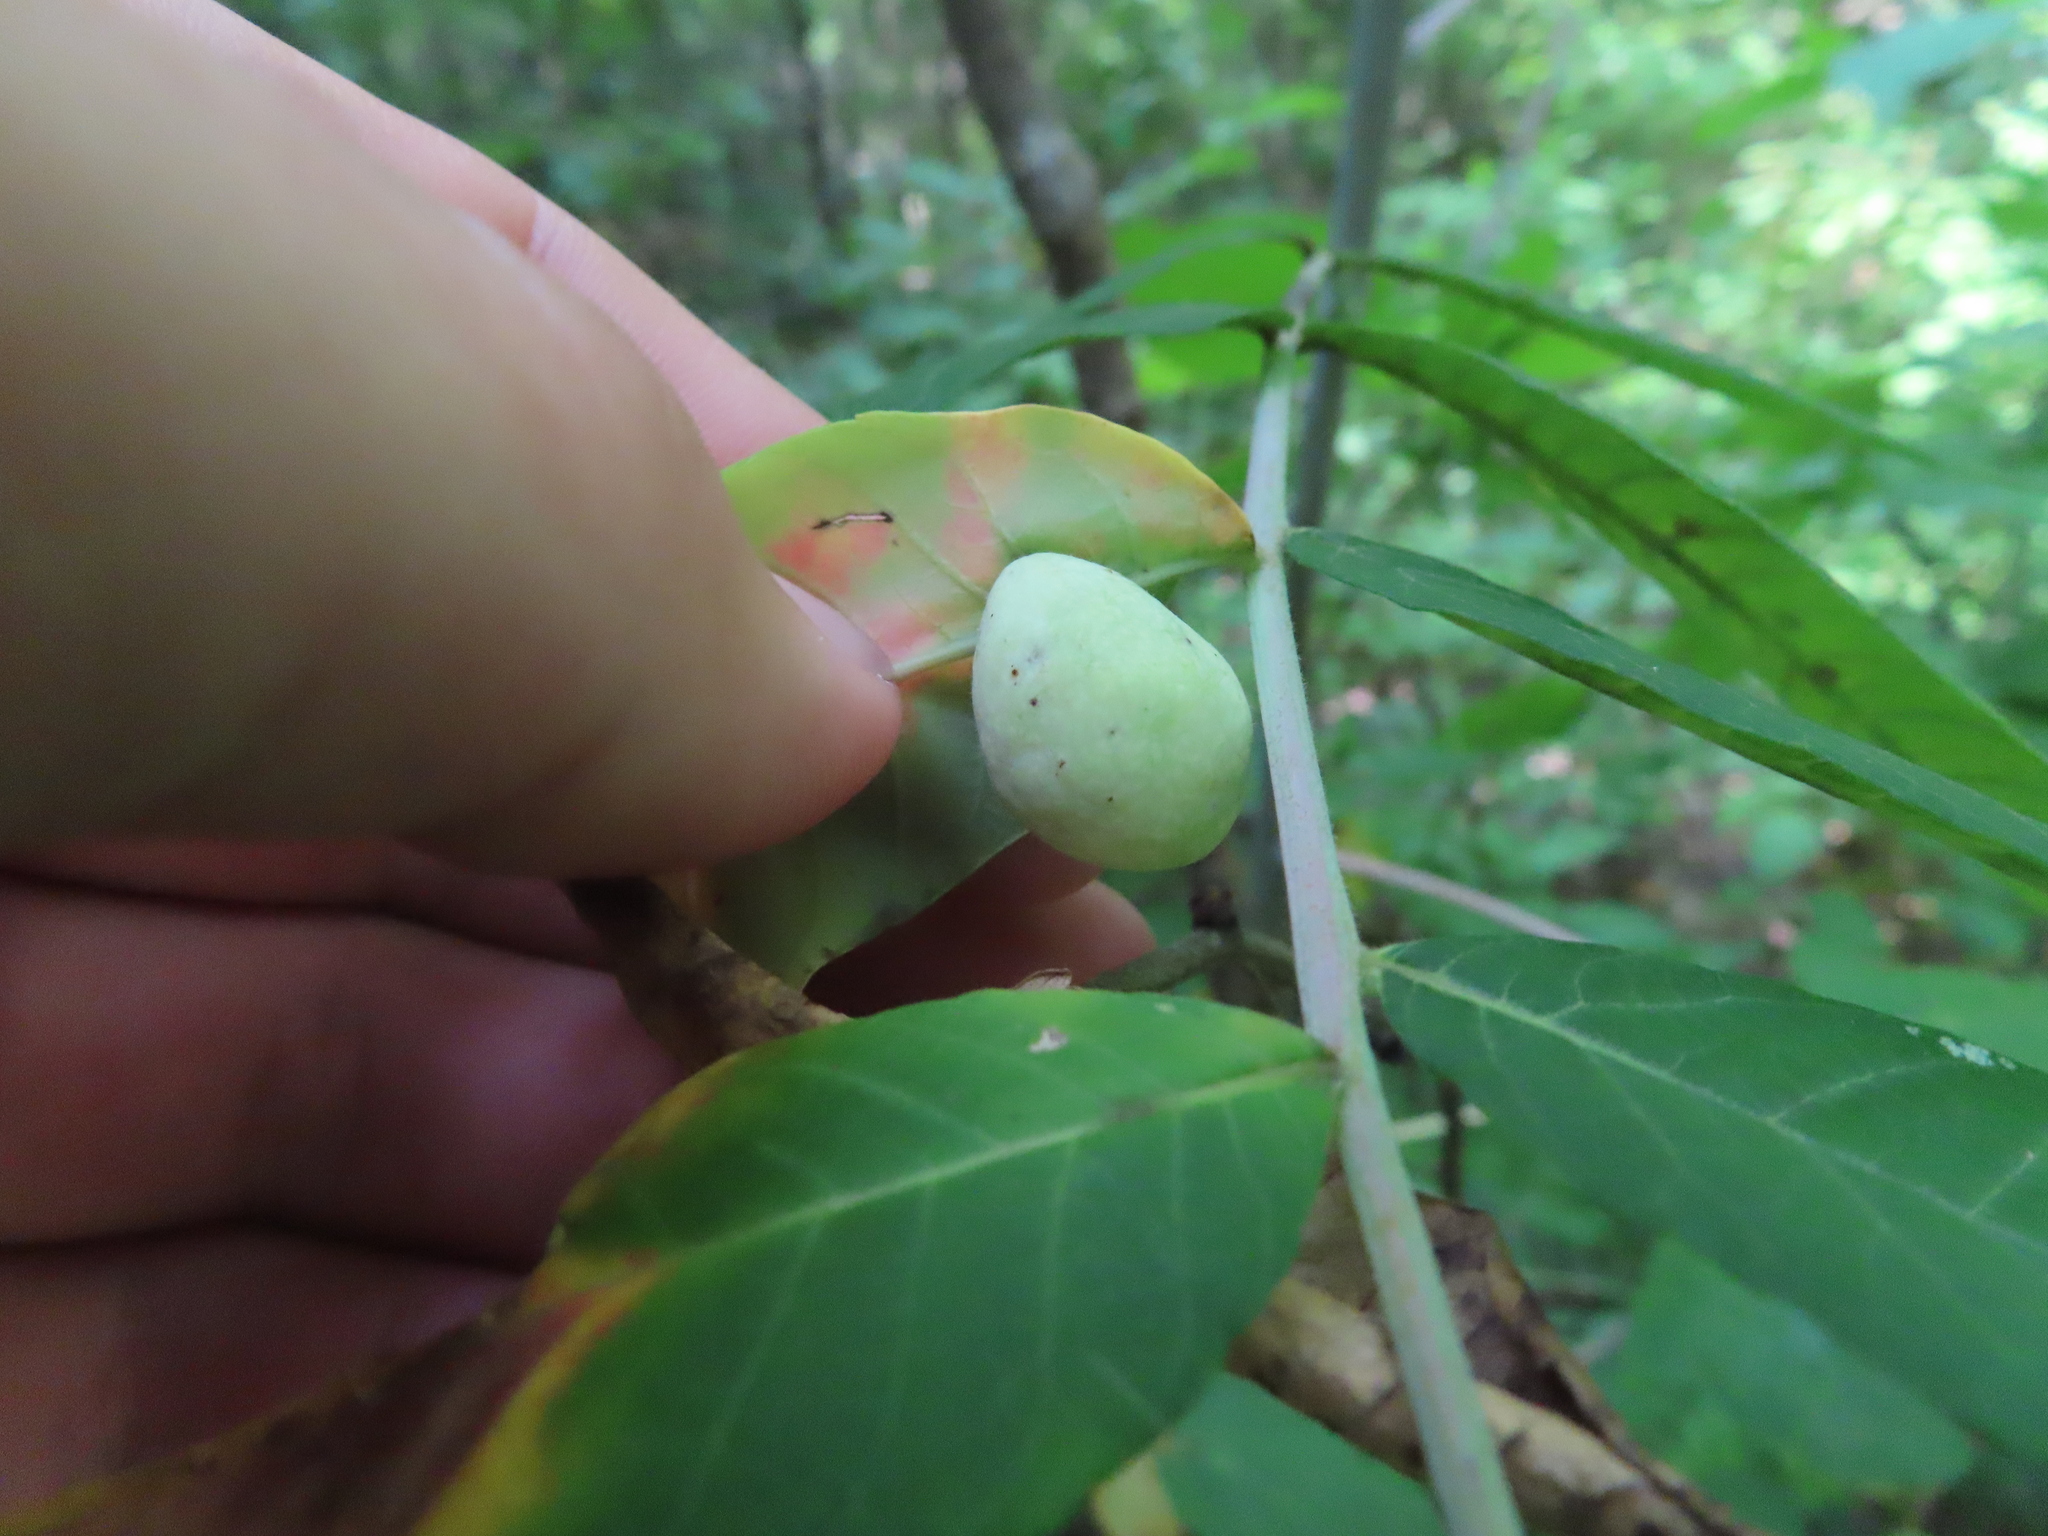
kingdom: Animalia
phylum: Arthropoda
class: Insecta
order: Hemiptera
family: Aphididae
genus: Melaphis
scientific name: Melaphis rhois
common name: Sumac gall aphid
